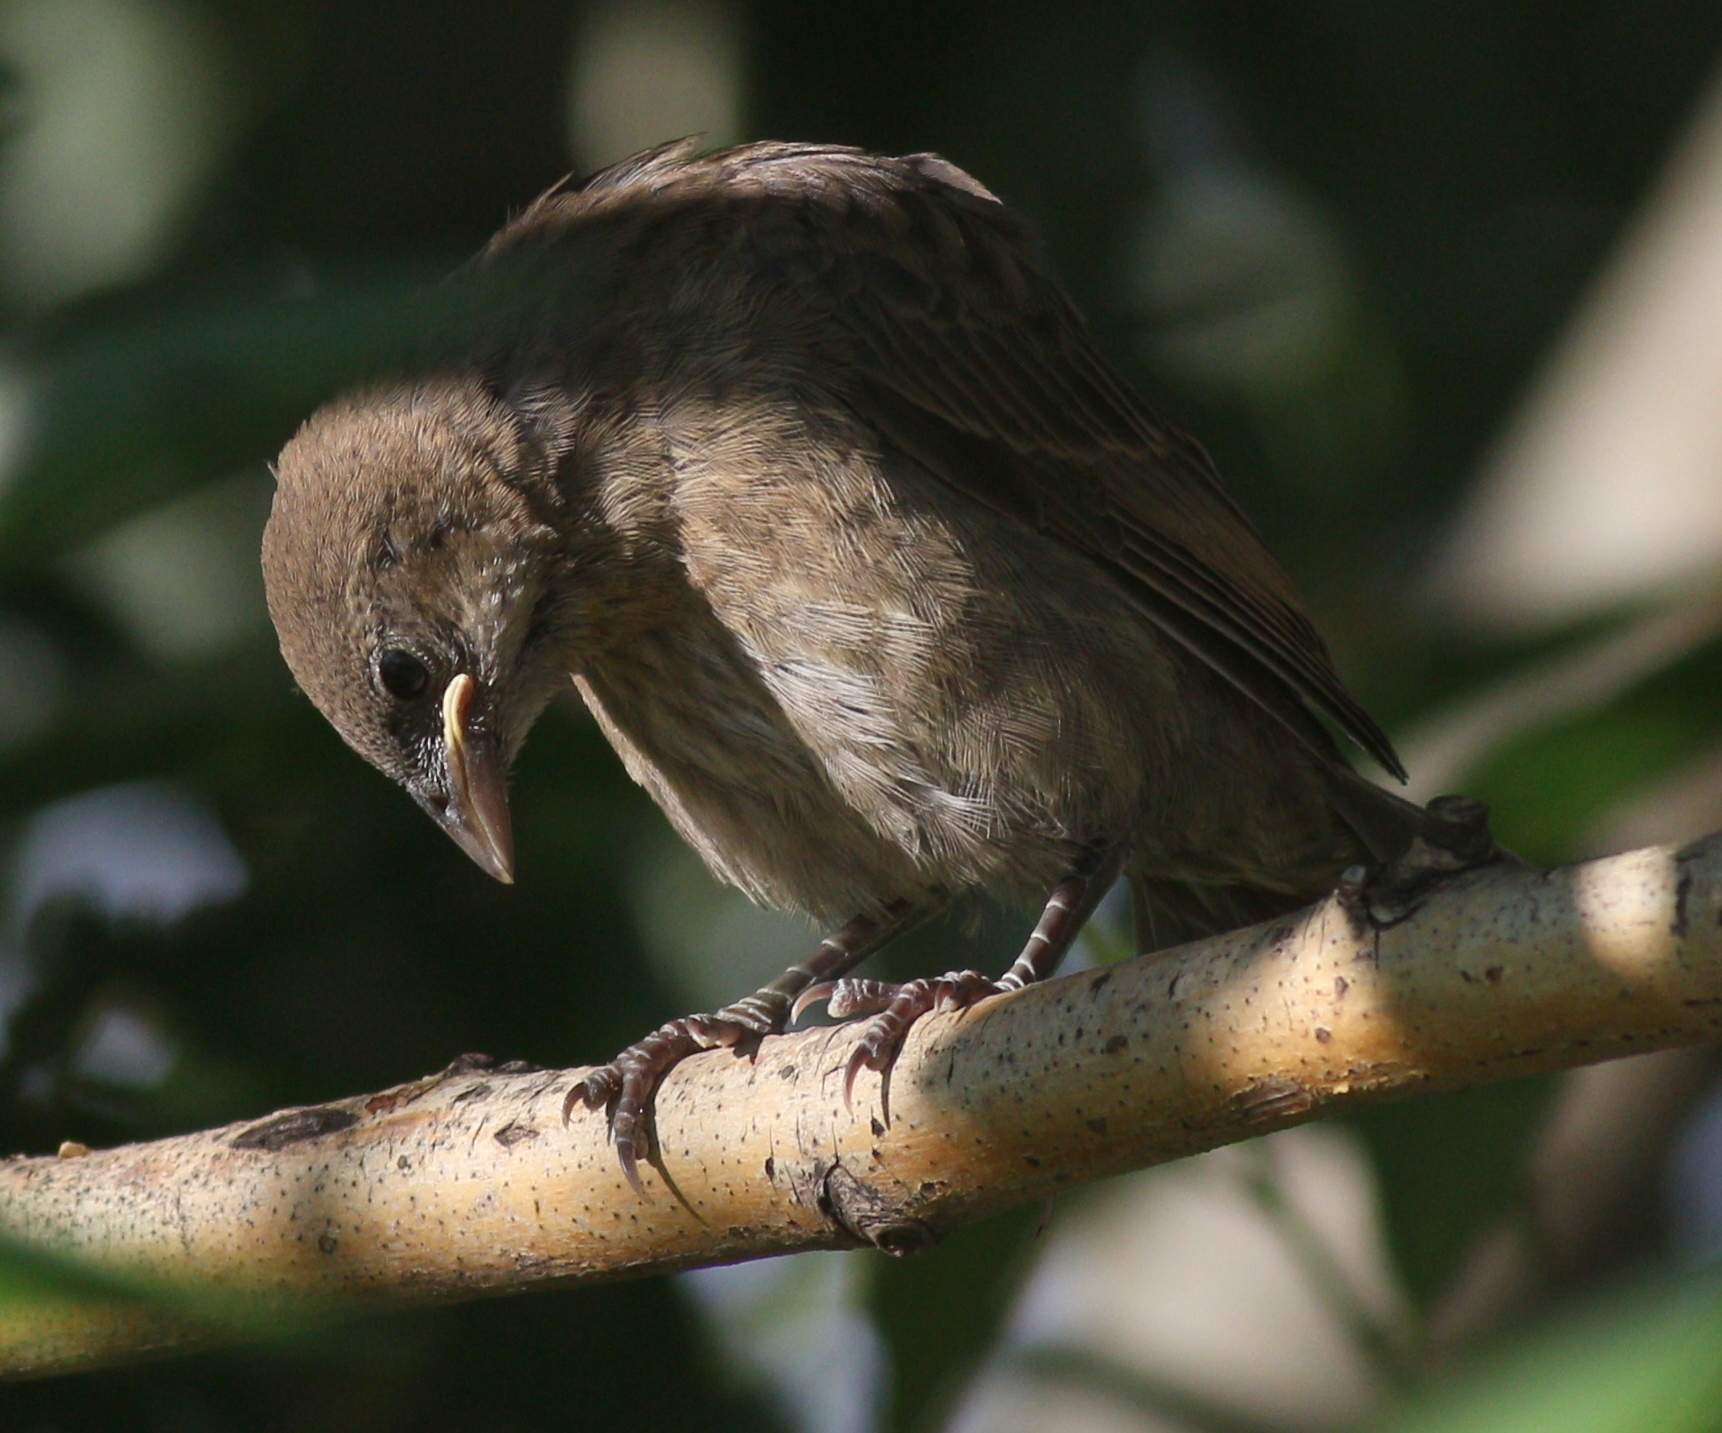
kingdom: Animalia
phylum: Chordata
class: Aves
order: Passeriformes
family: Icteridae
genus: Molothrus
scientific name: Molothrus bonariensis
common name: Shiny cowbird
